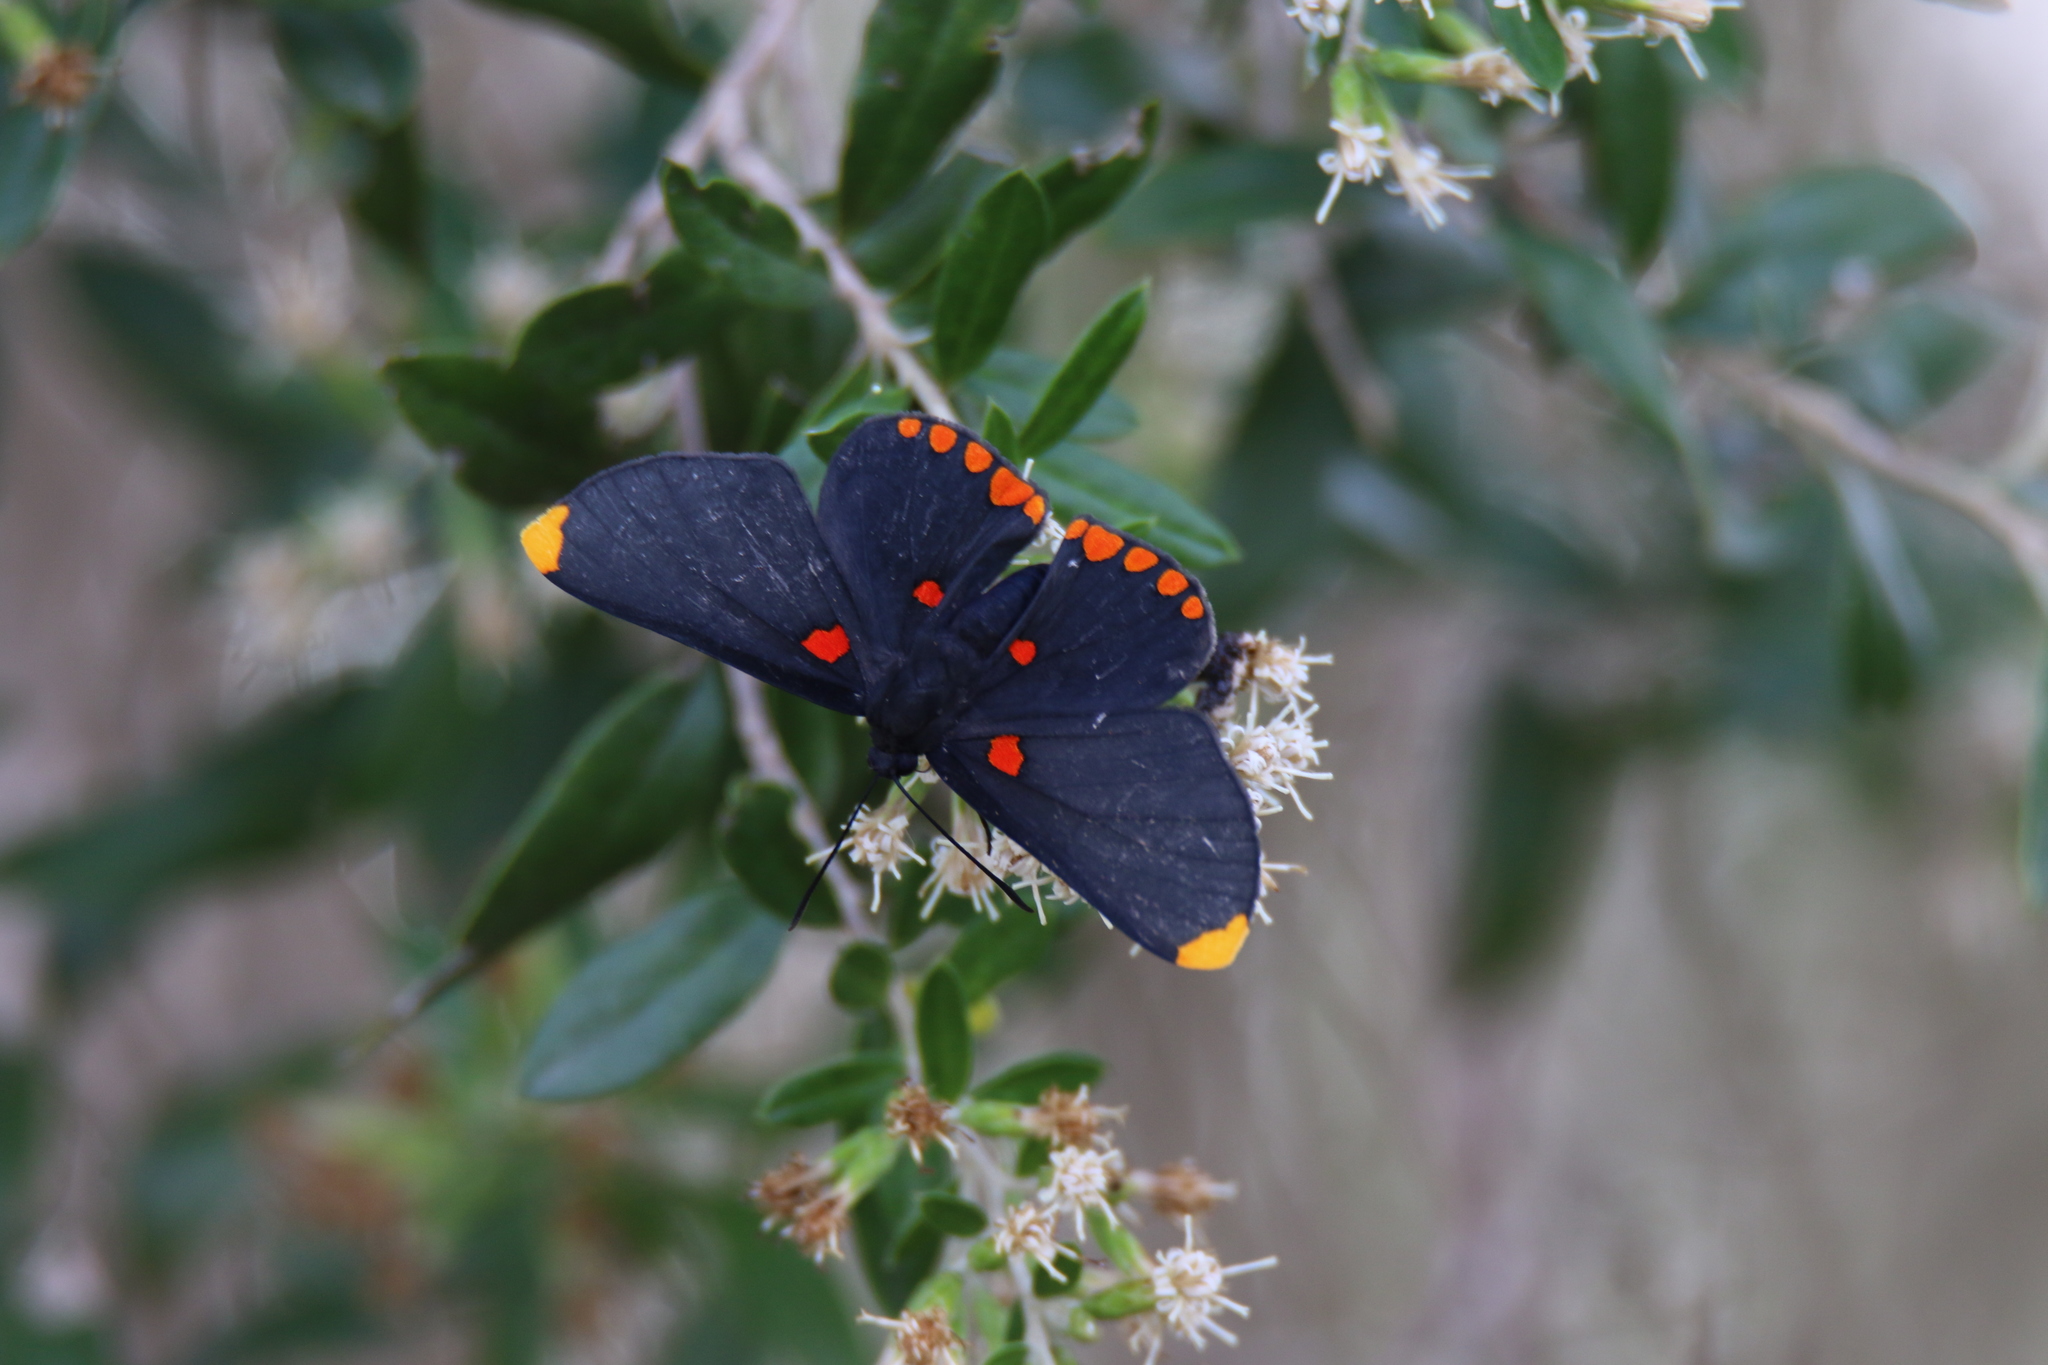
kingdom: Animalia
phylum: Arthropoda
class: Insecta
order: Lepidoptera
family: Lycaenidae
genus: Melanis
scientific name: Melanis pixe
